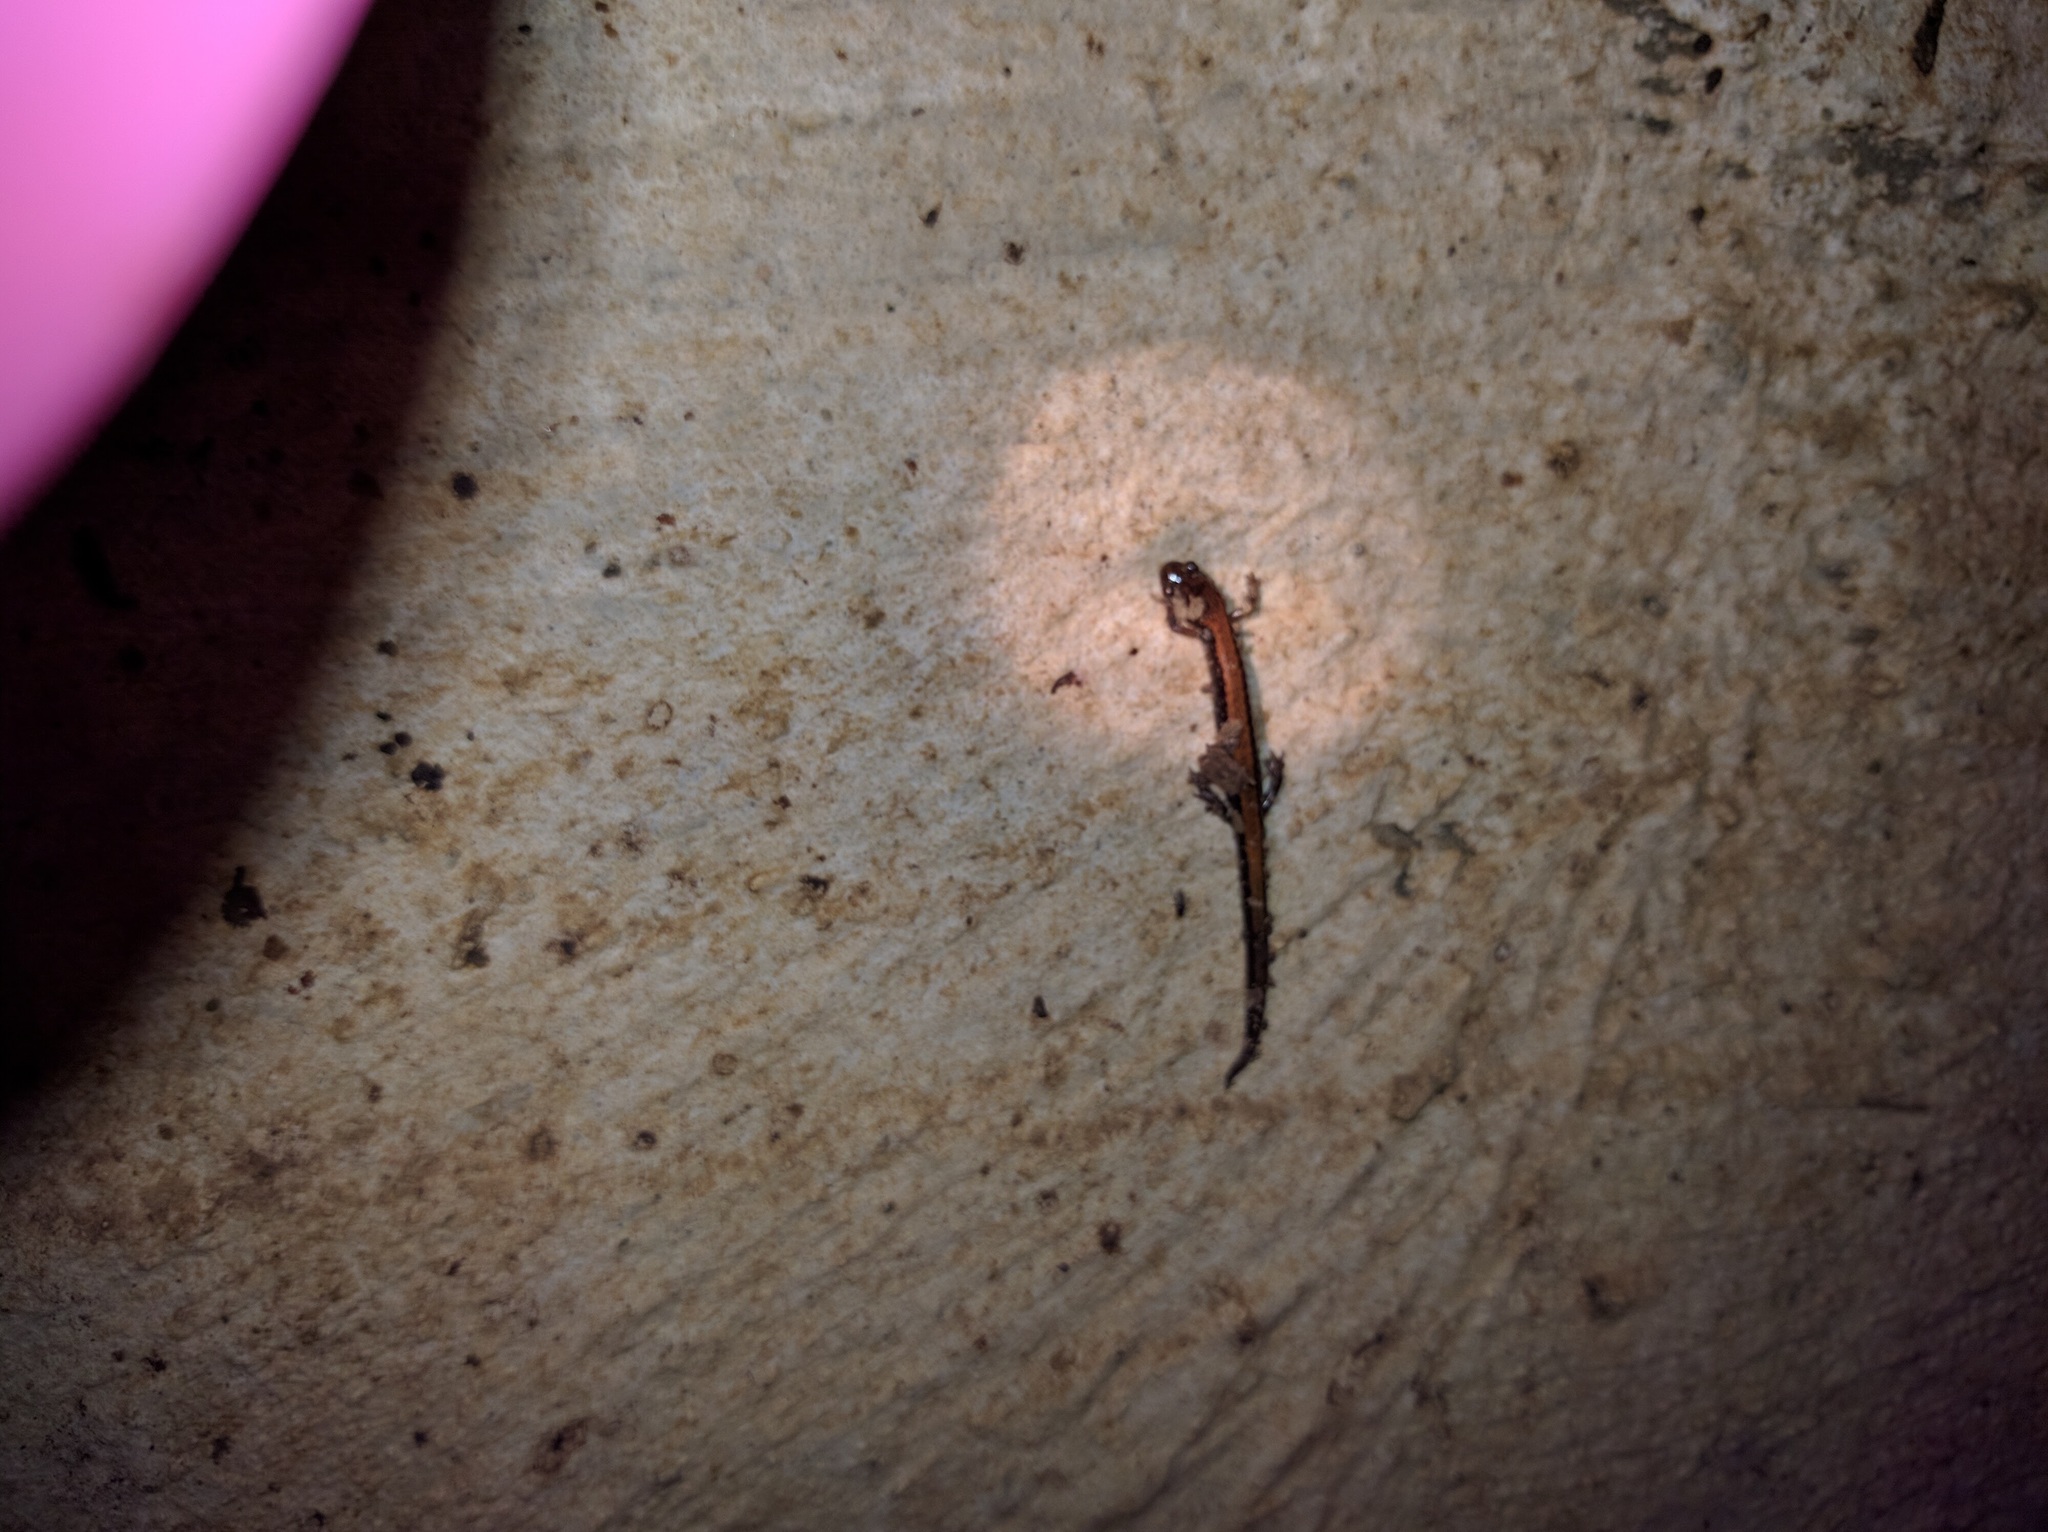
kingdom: Animalia
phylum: Chordata
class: Amphibia
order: Caudata
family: Plethodontidae
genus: Plethodon
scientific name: Plethodon cinereus
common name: Redback salamander
